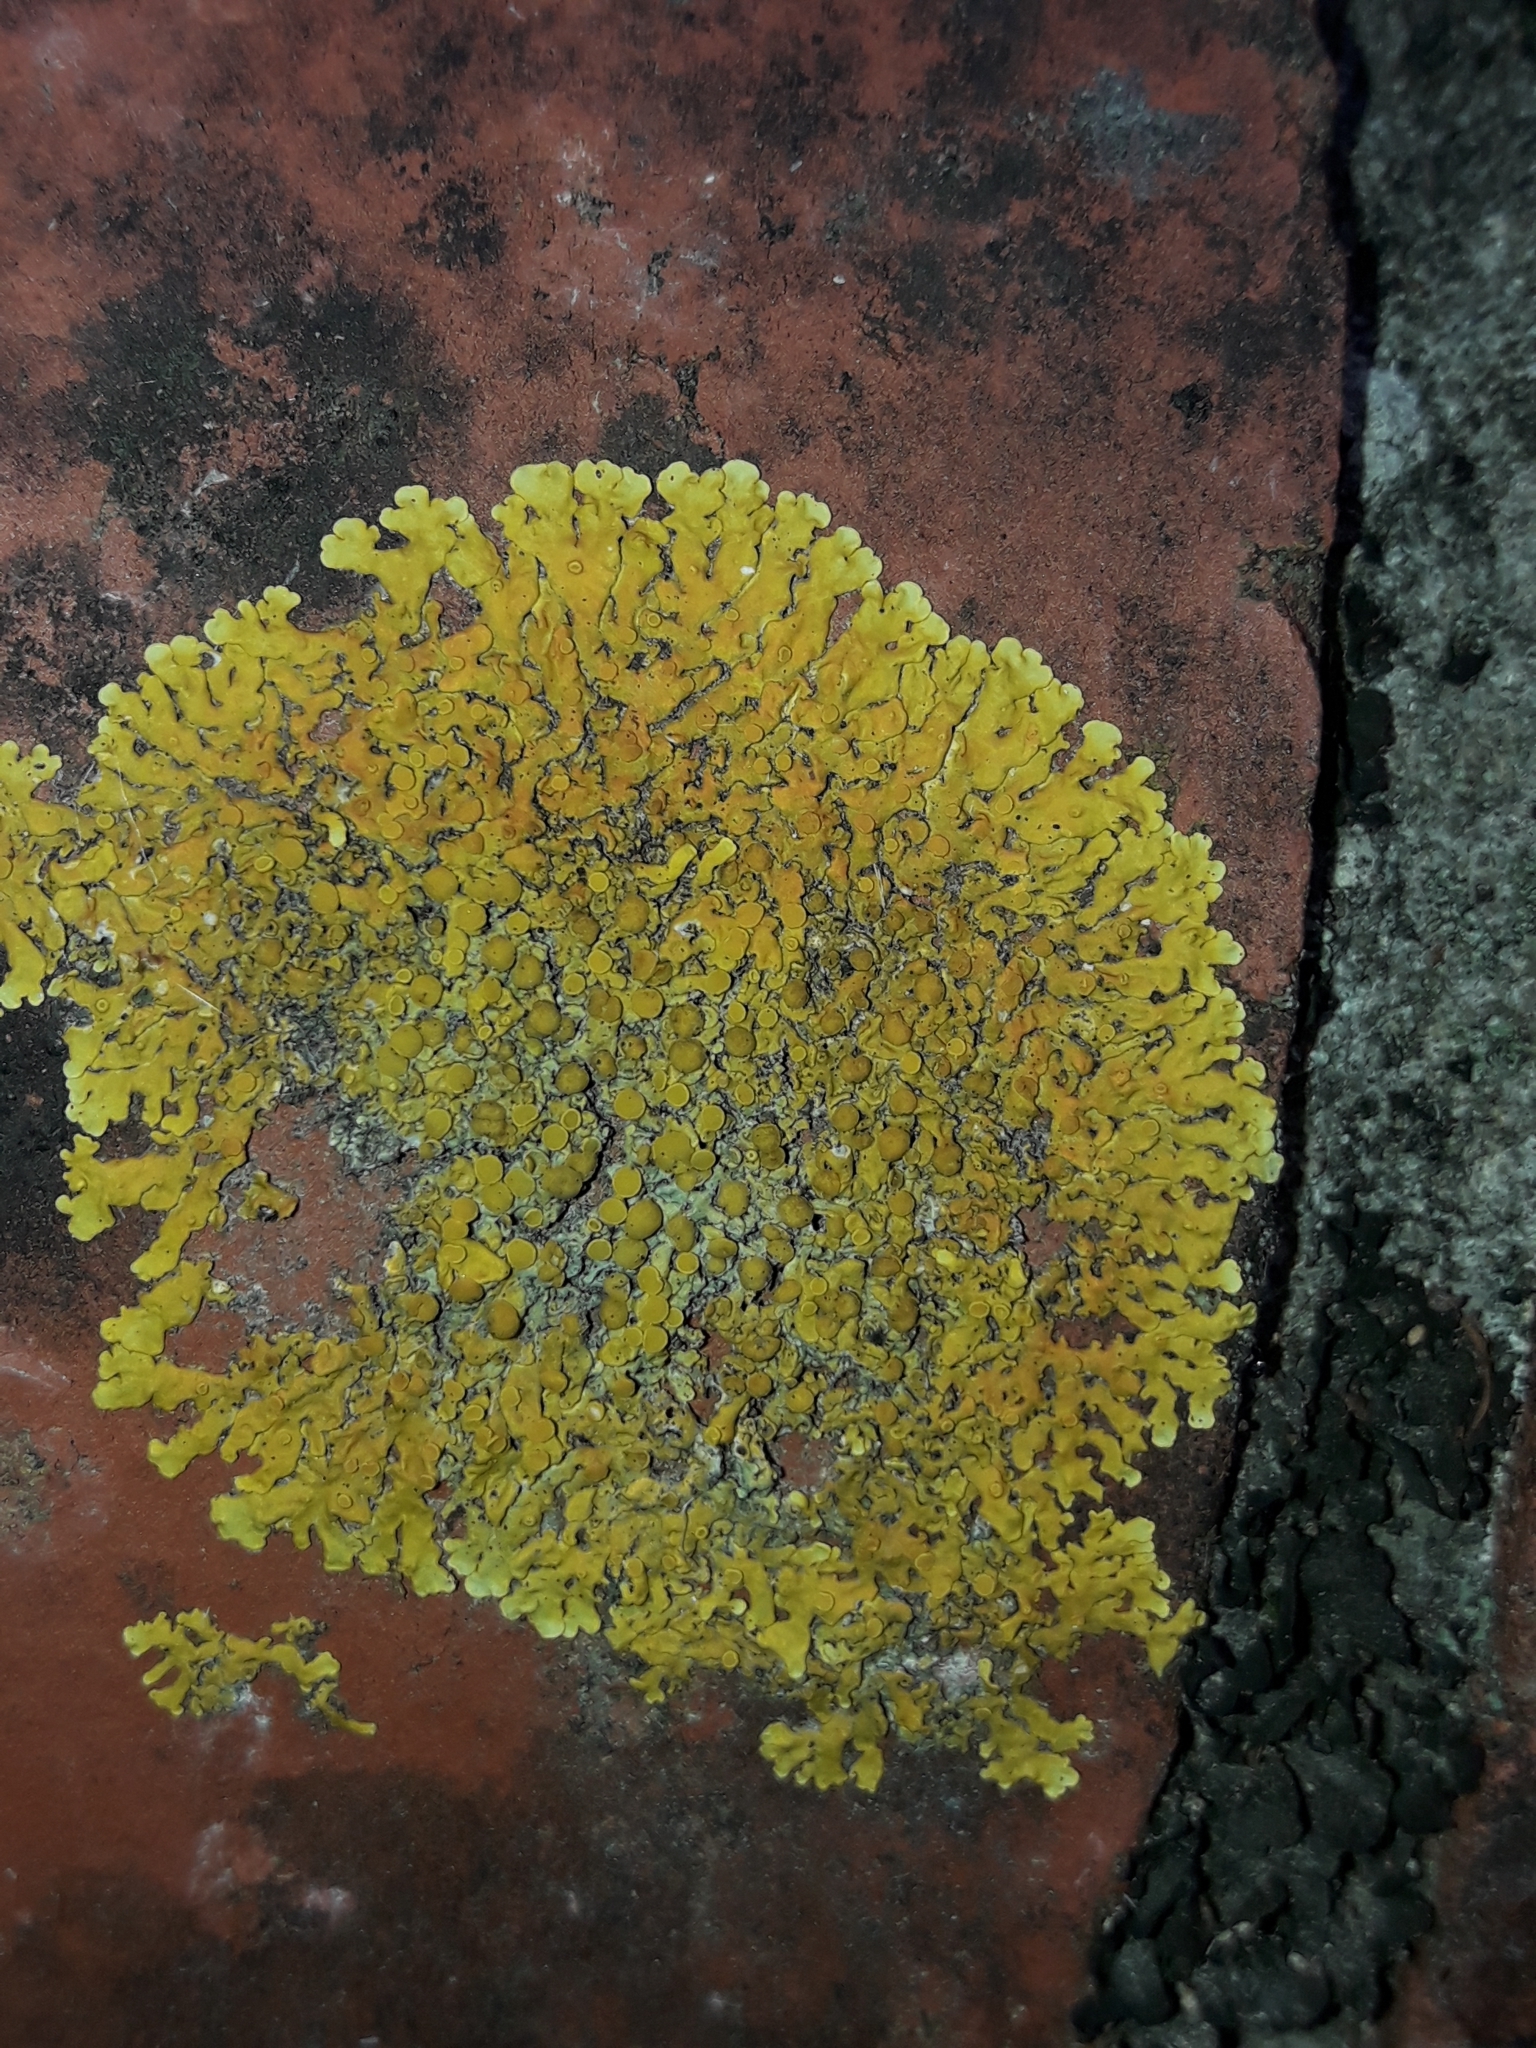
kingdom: Fungi
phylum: Ascomycota
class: Lecanoromycetes
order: Teloschistales
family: Teloschistaceae
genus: Xanthoria
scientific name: Xanthoria parietina
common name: Common orange lichen
